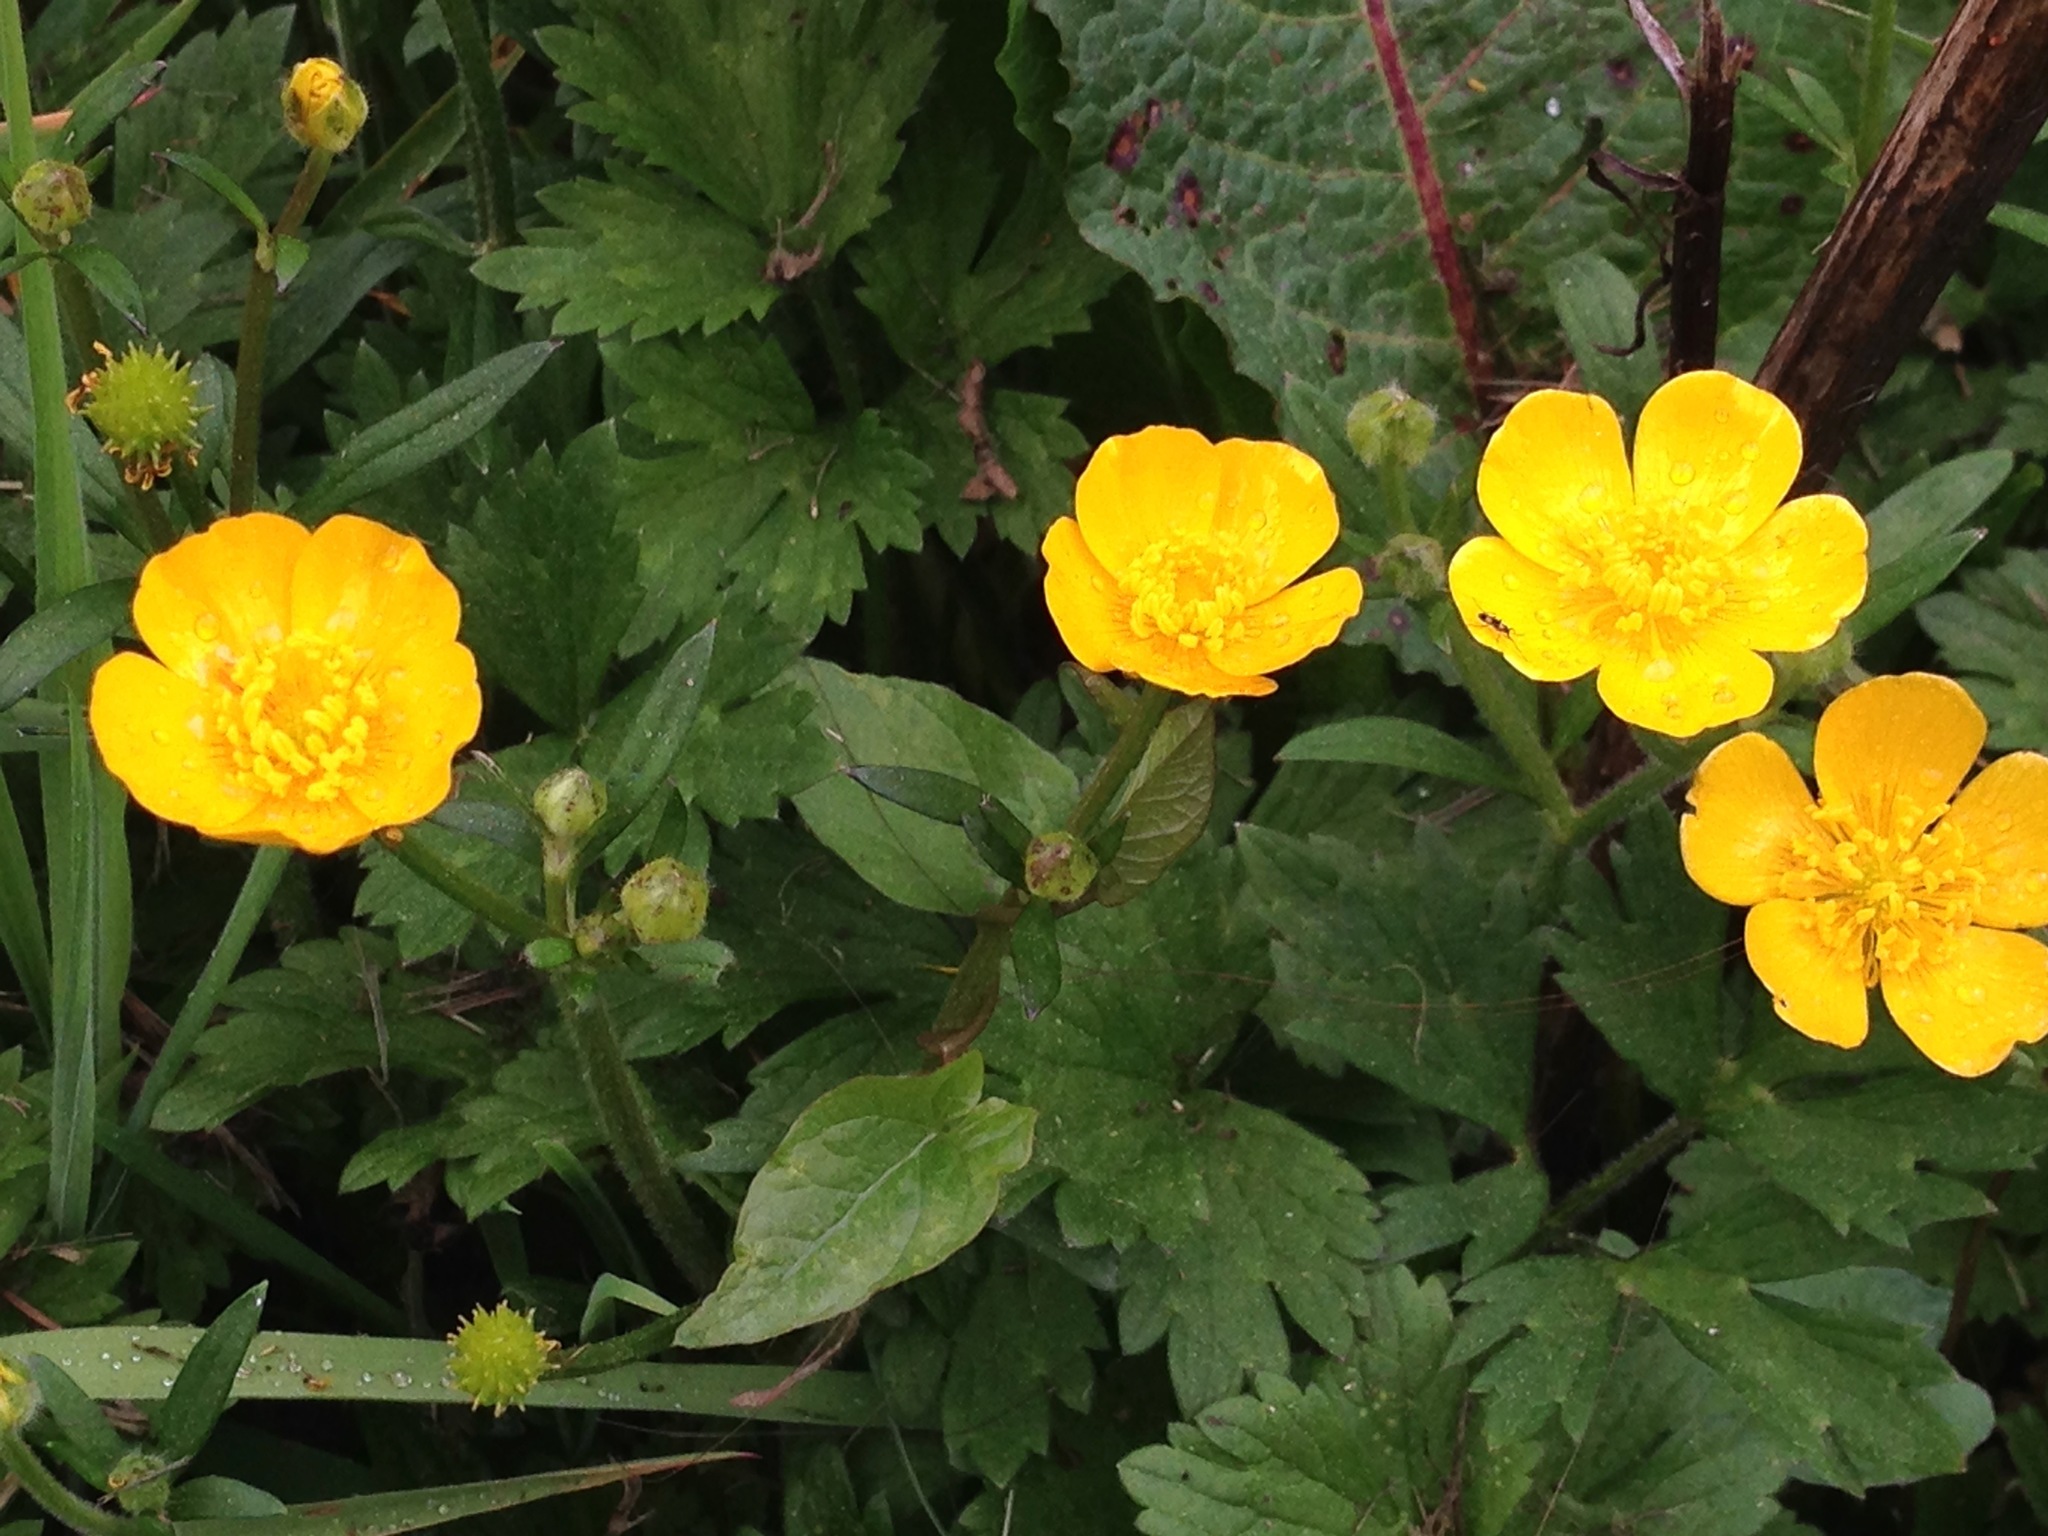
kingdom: Plantae
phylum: Tracheophyta
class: Magnoliopsida
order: Ranunculales
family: Ranunculaceae
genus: Ranunculus
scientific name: Ranunculus repens
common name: Creeping buttercup
